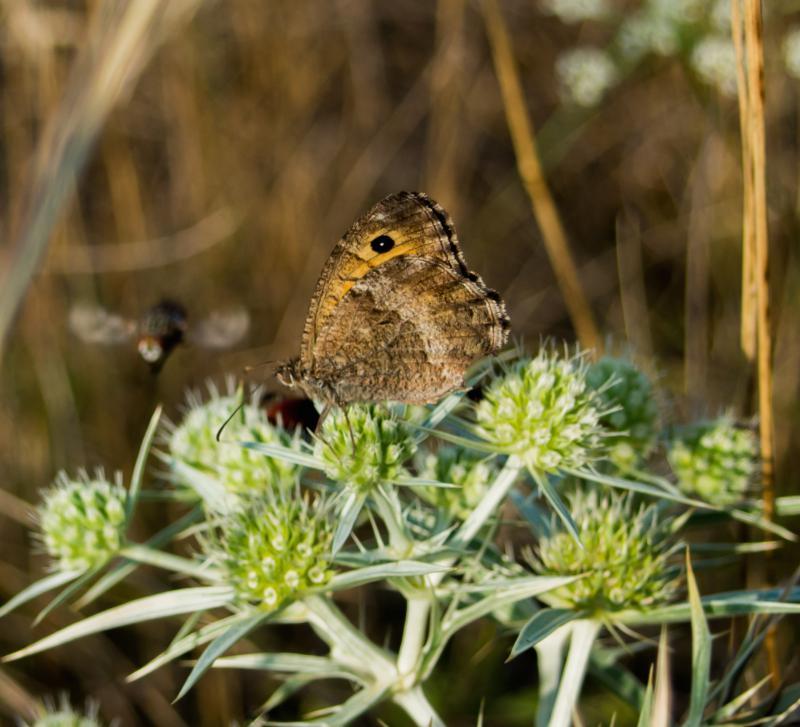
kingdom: Animalia
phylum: Arthropoda
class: Insecta
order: Lepidoptera
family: Nymphalidae
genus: Arethusana
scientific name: Arethusana arethusa
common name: False grayling
